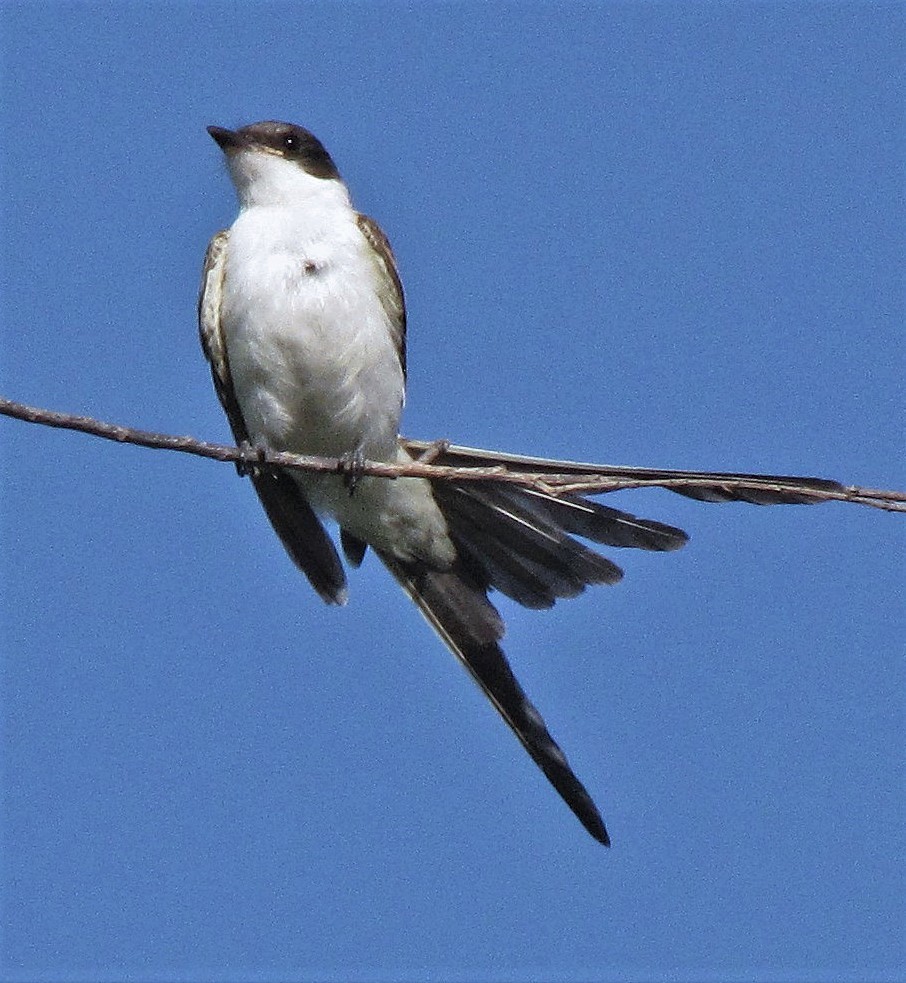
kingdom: Animalia
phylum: Chordata
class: Aves
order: Passeriformes
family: Tyrannidae
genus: Tyrannus
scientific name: Tyrannus savana
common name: Fork-tailed flycatcher
